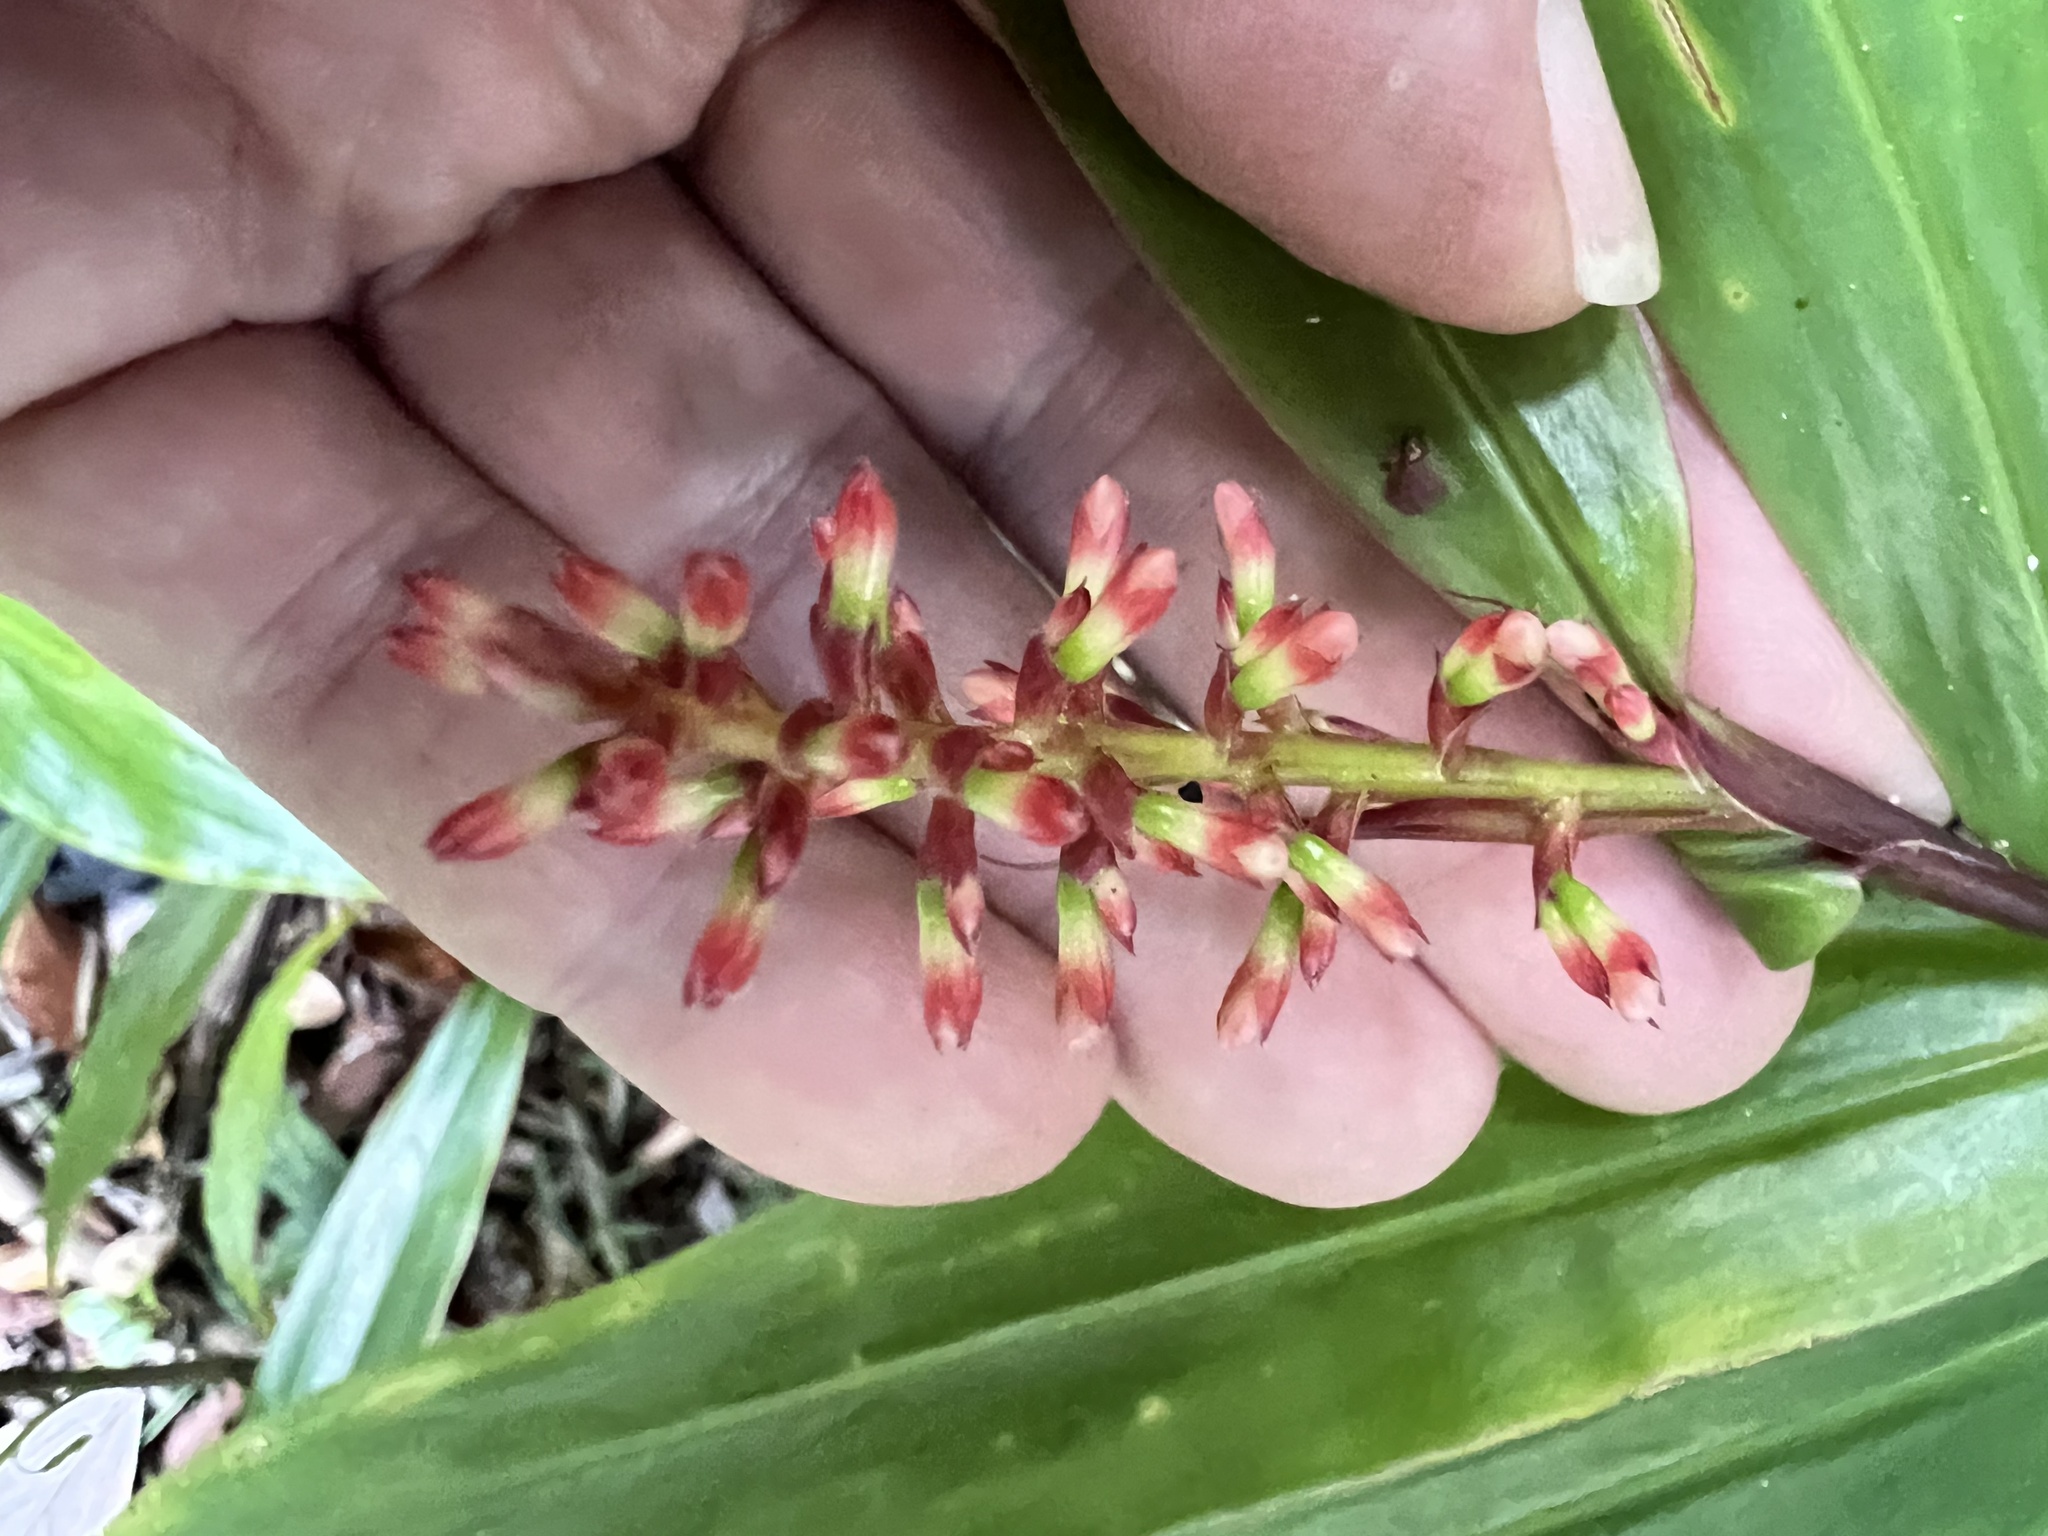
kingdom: Plantae
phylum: Tracheophyta
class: Liliopsida
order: Zingiberales
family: Zingiberaceae
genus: Alpinia
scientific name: Alpinia modesta
